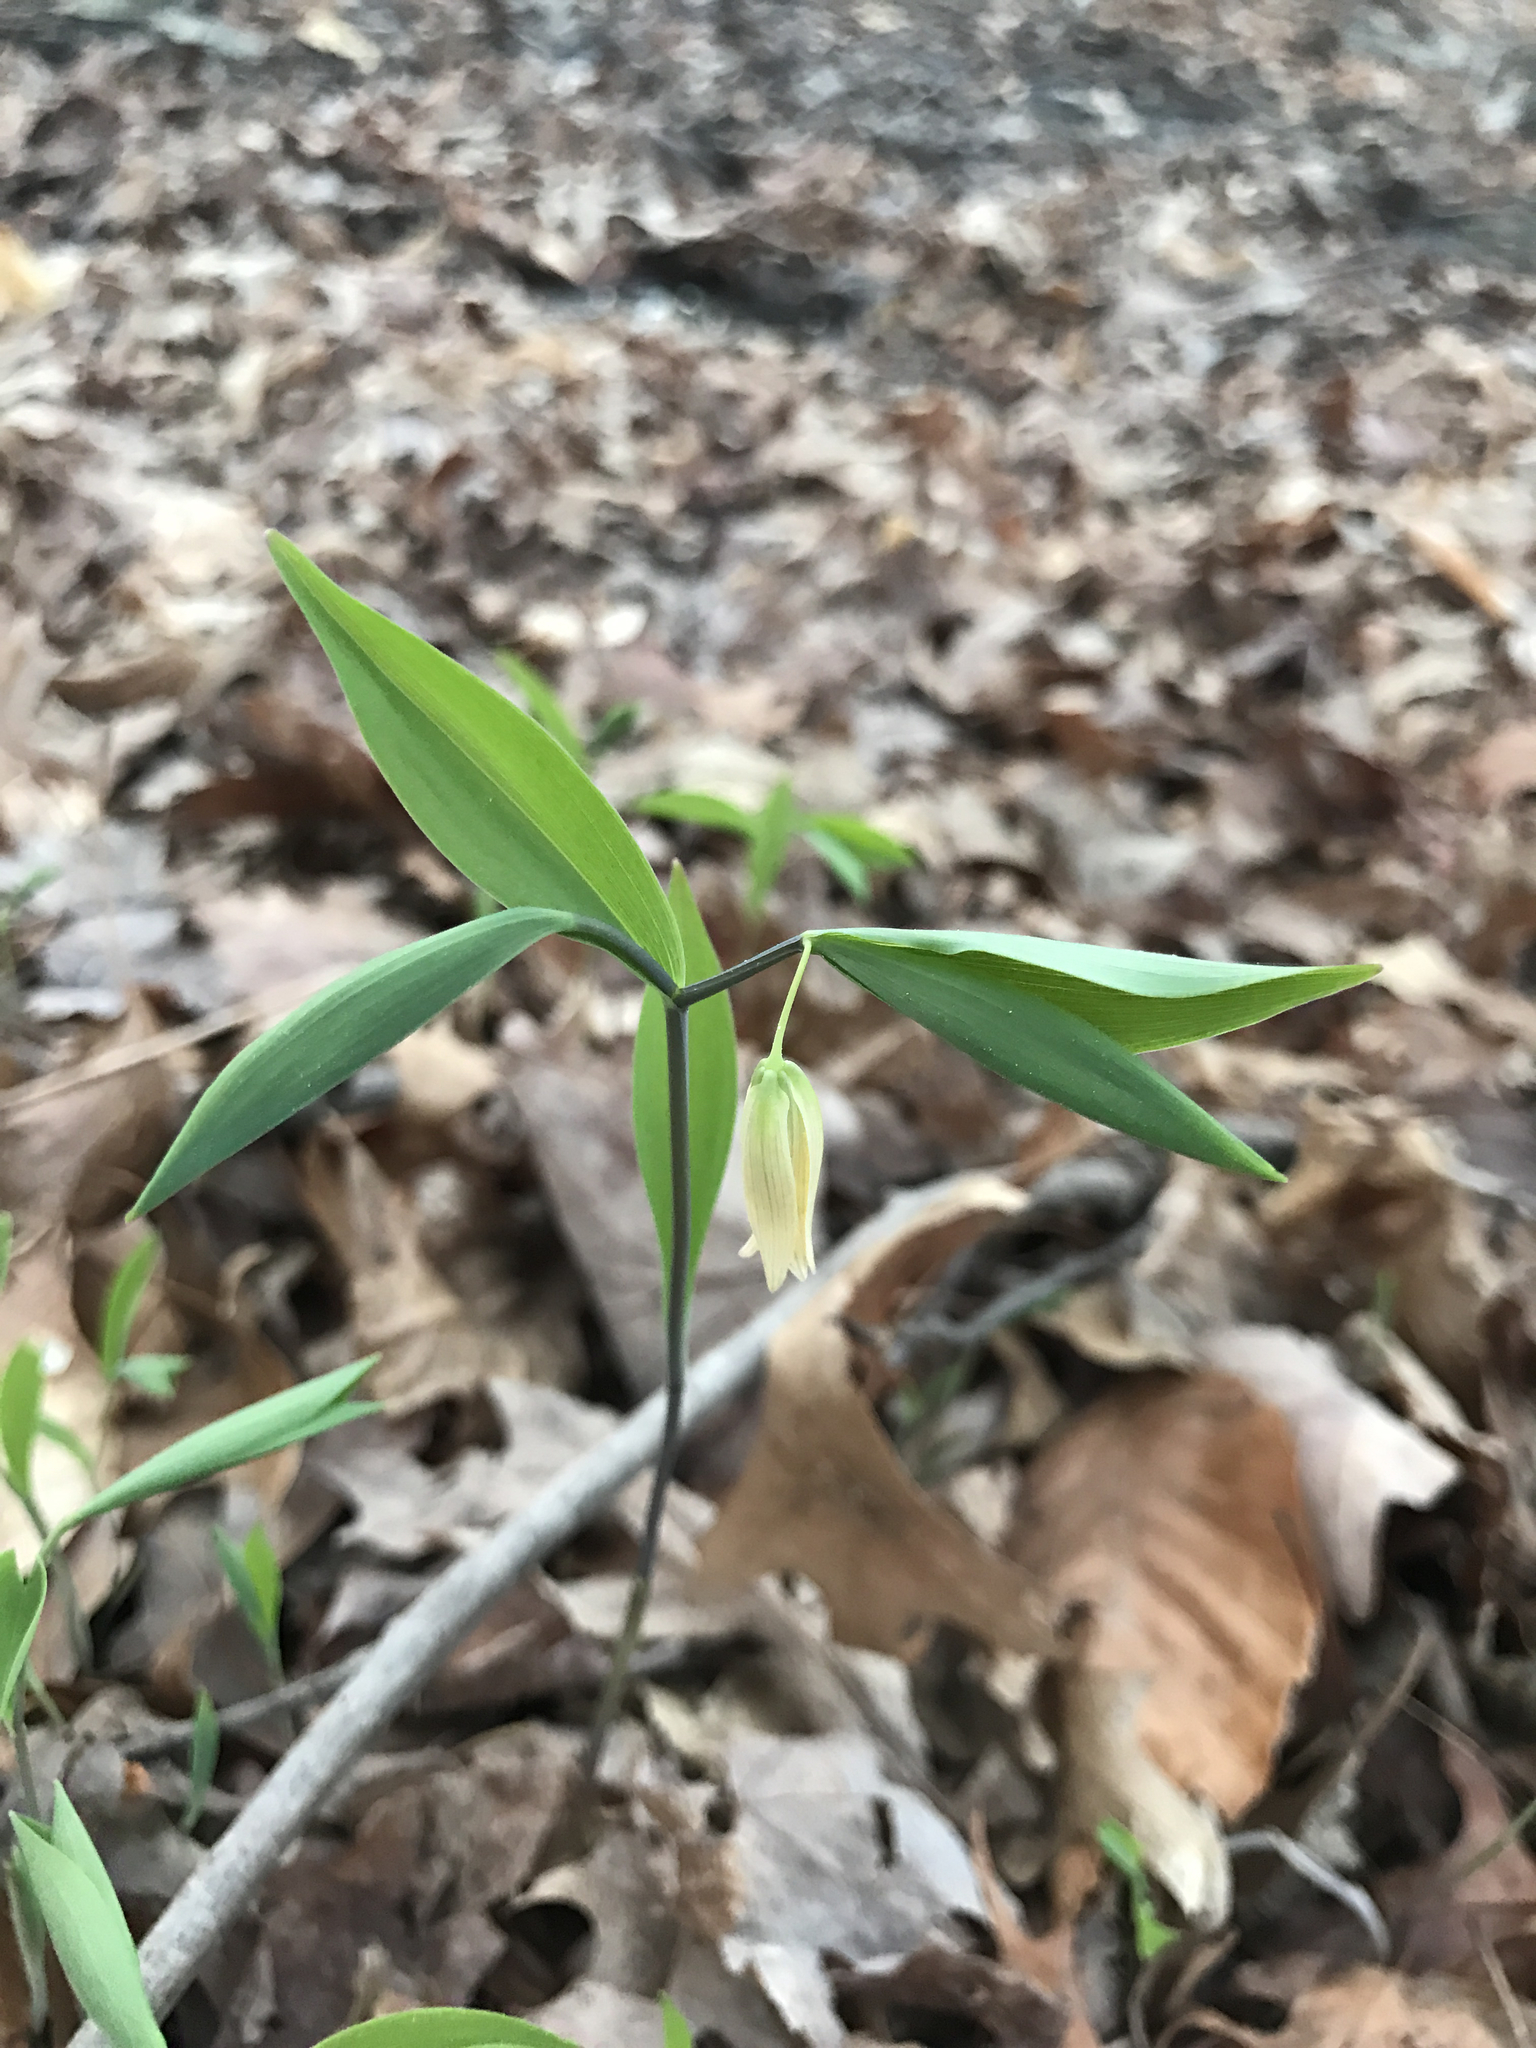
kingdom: Plantae
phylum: Tracheophyta
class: Liliopsida
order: Liliales
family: Colchicaceae
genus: Uvularia
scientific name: Uvularia sessilifolia
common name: Straw-lily
